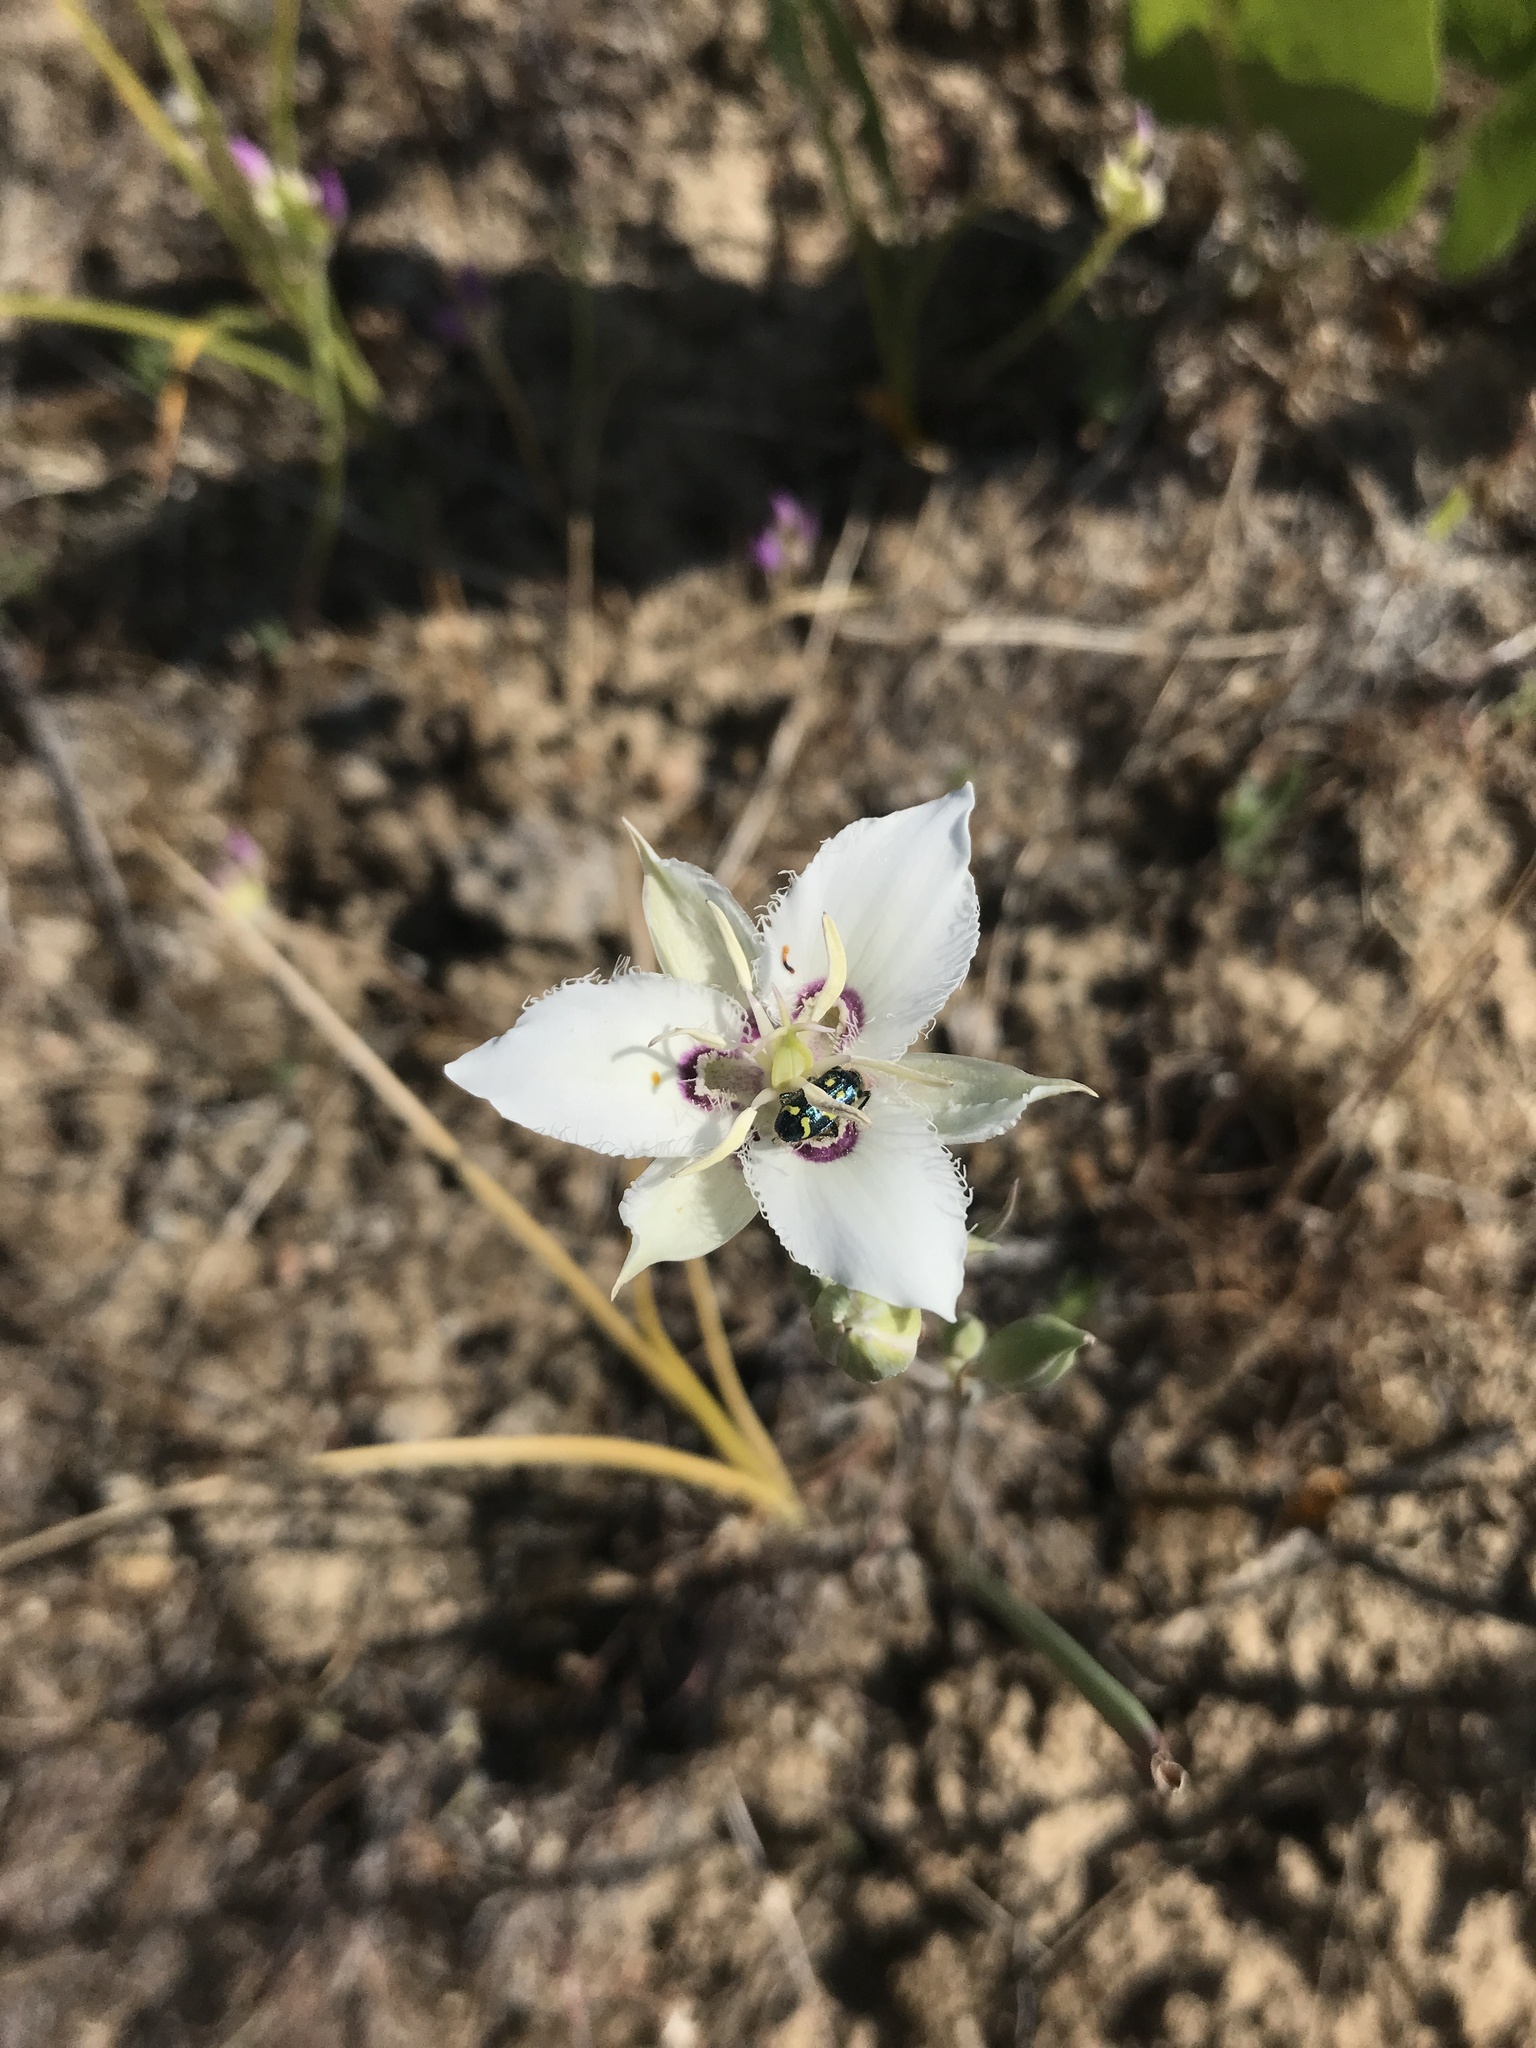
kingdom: Plantae
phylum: Tracheophyta
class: Liliopsida
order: Liliales
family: Liliaceae
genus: Calochortus
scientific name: Calochortus lyallii
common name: Lyall's mariposa lily
